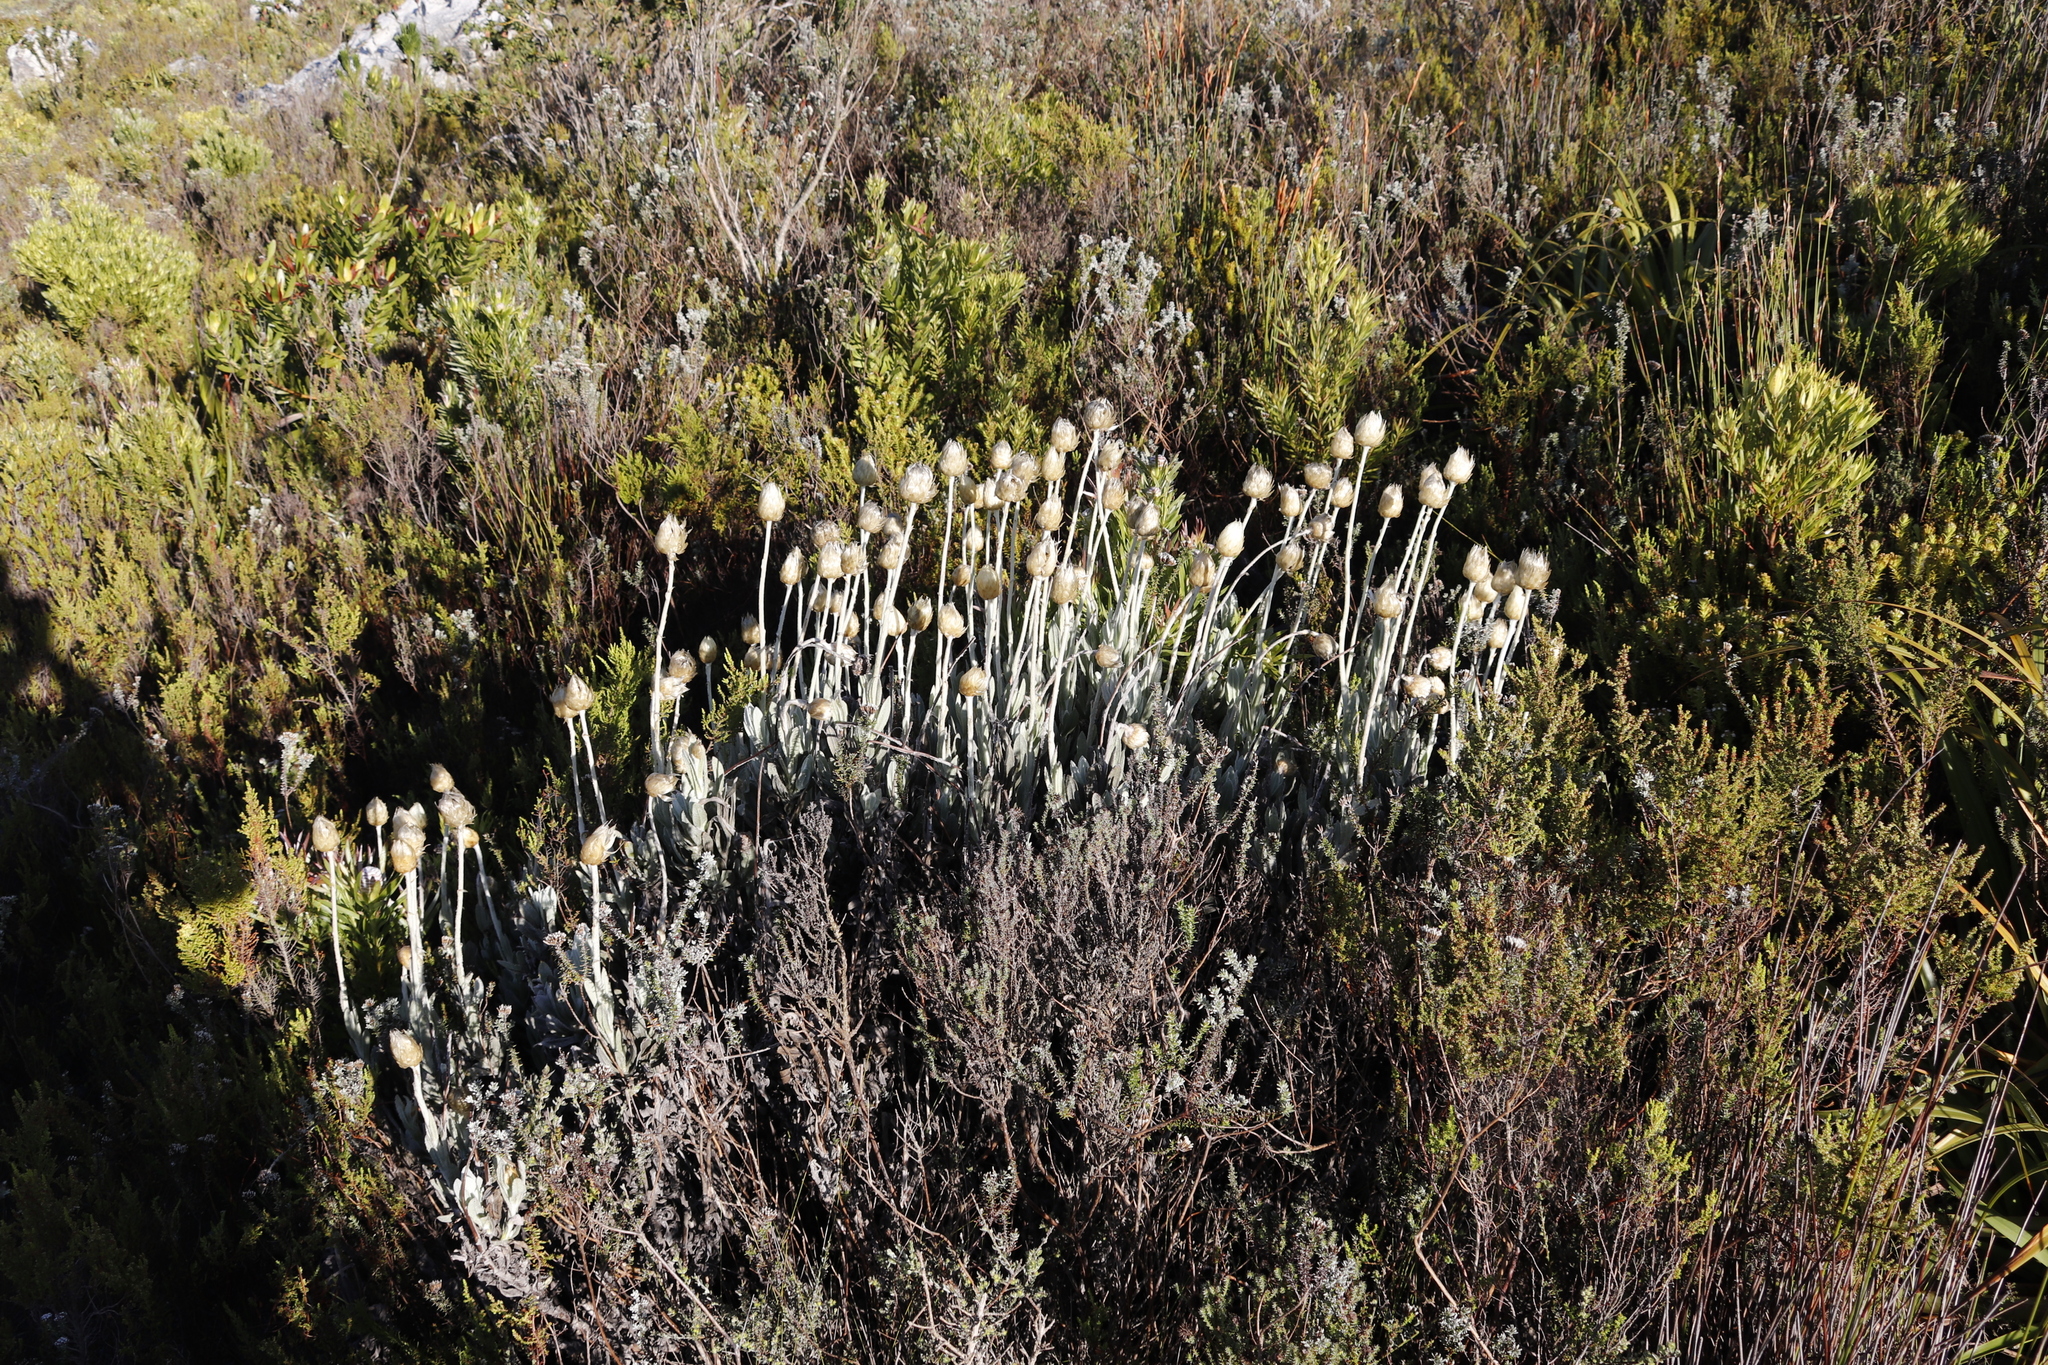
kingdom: Plantae
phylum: Tracheophyta
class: Magnoliopsida
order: Asterales
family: Asteraceae
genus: Syncarpha
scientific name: Syncarpha speciosissima
